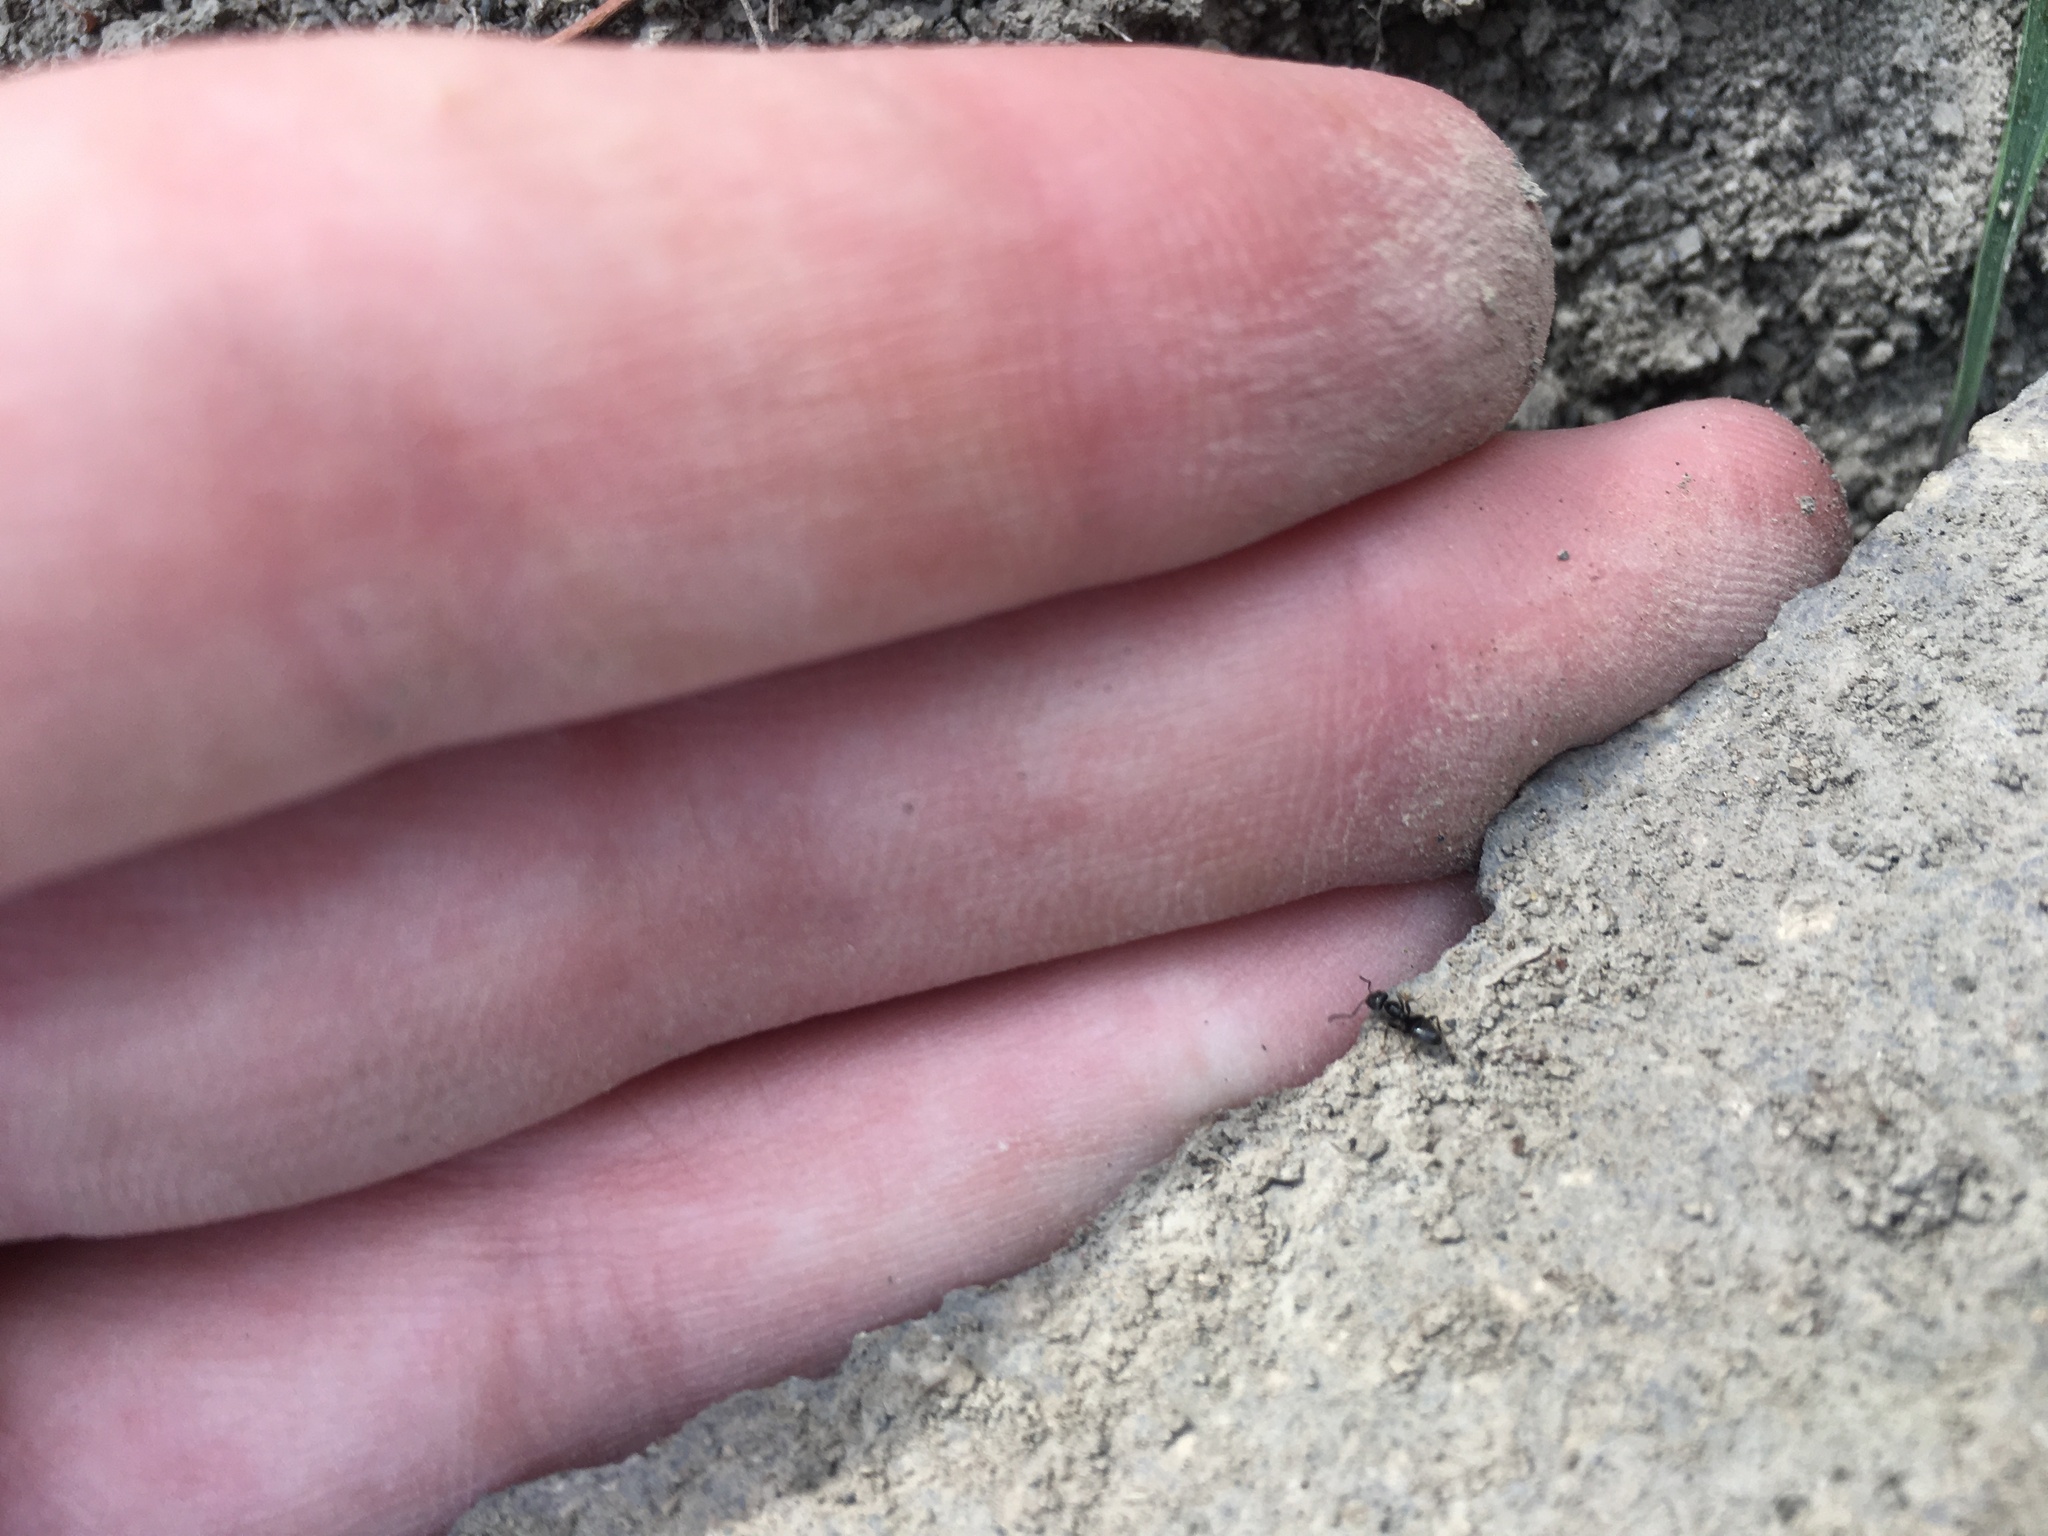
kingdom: Animalia
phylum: Arthropoda
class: Insecta
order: Hymenoptera
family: Formicidae
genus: Tapinoma
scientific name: Tapinoma sessile
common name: Odorous house ant
